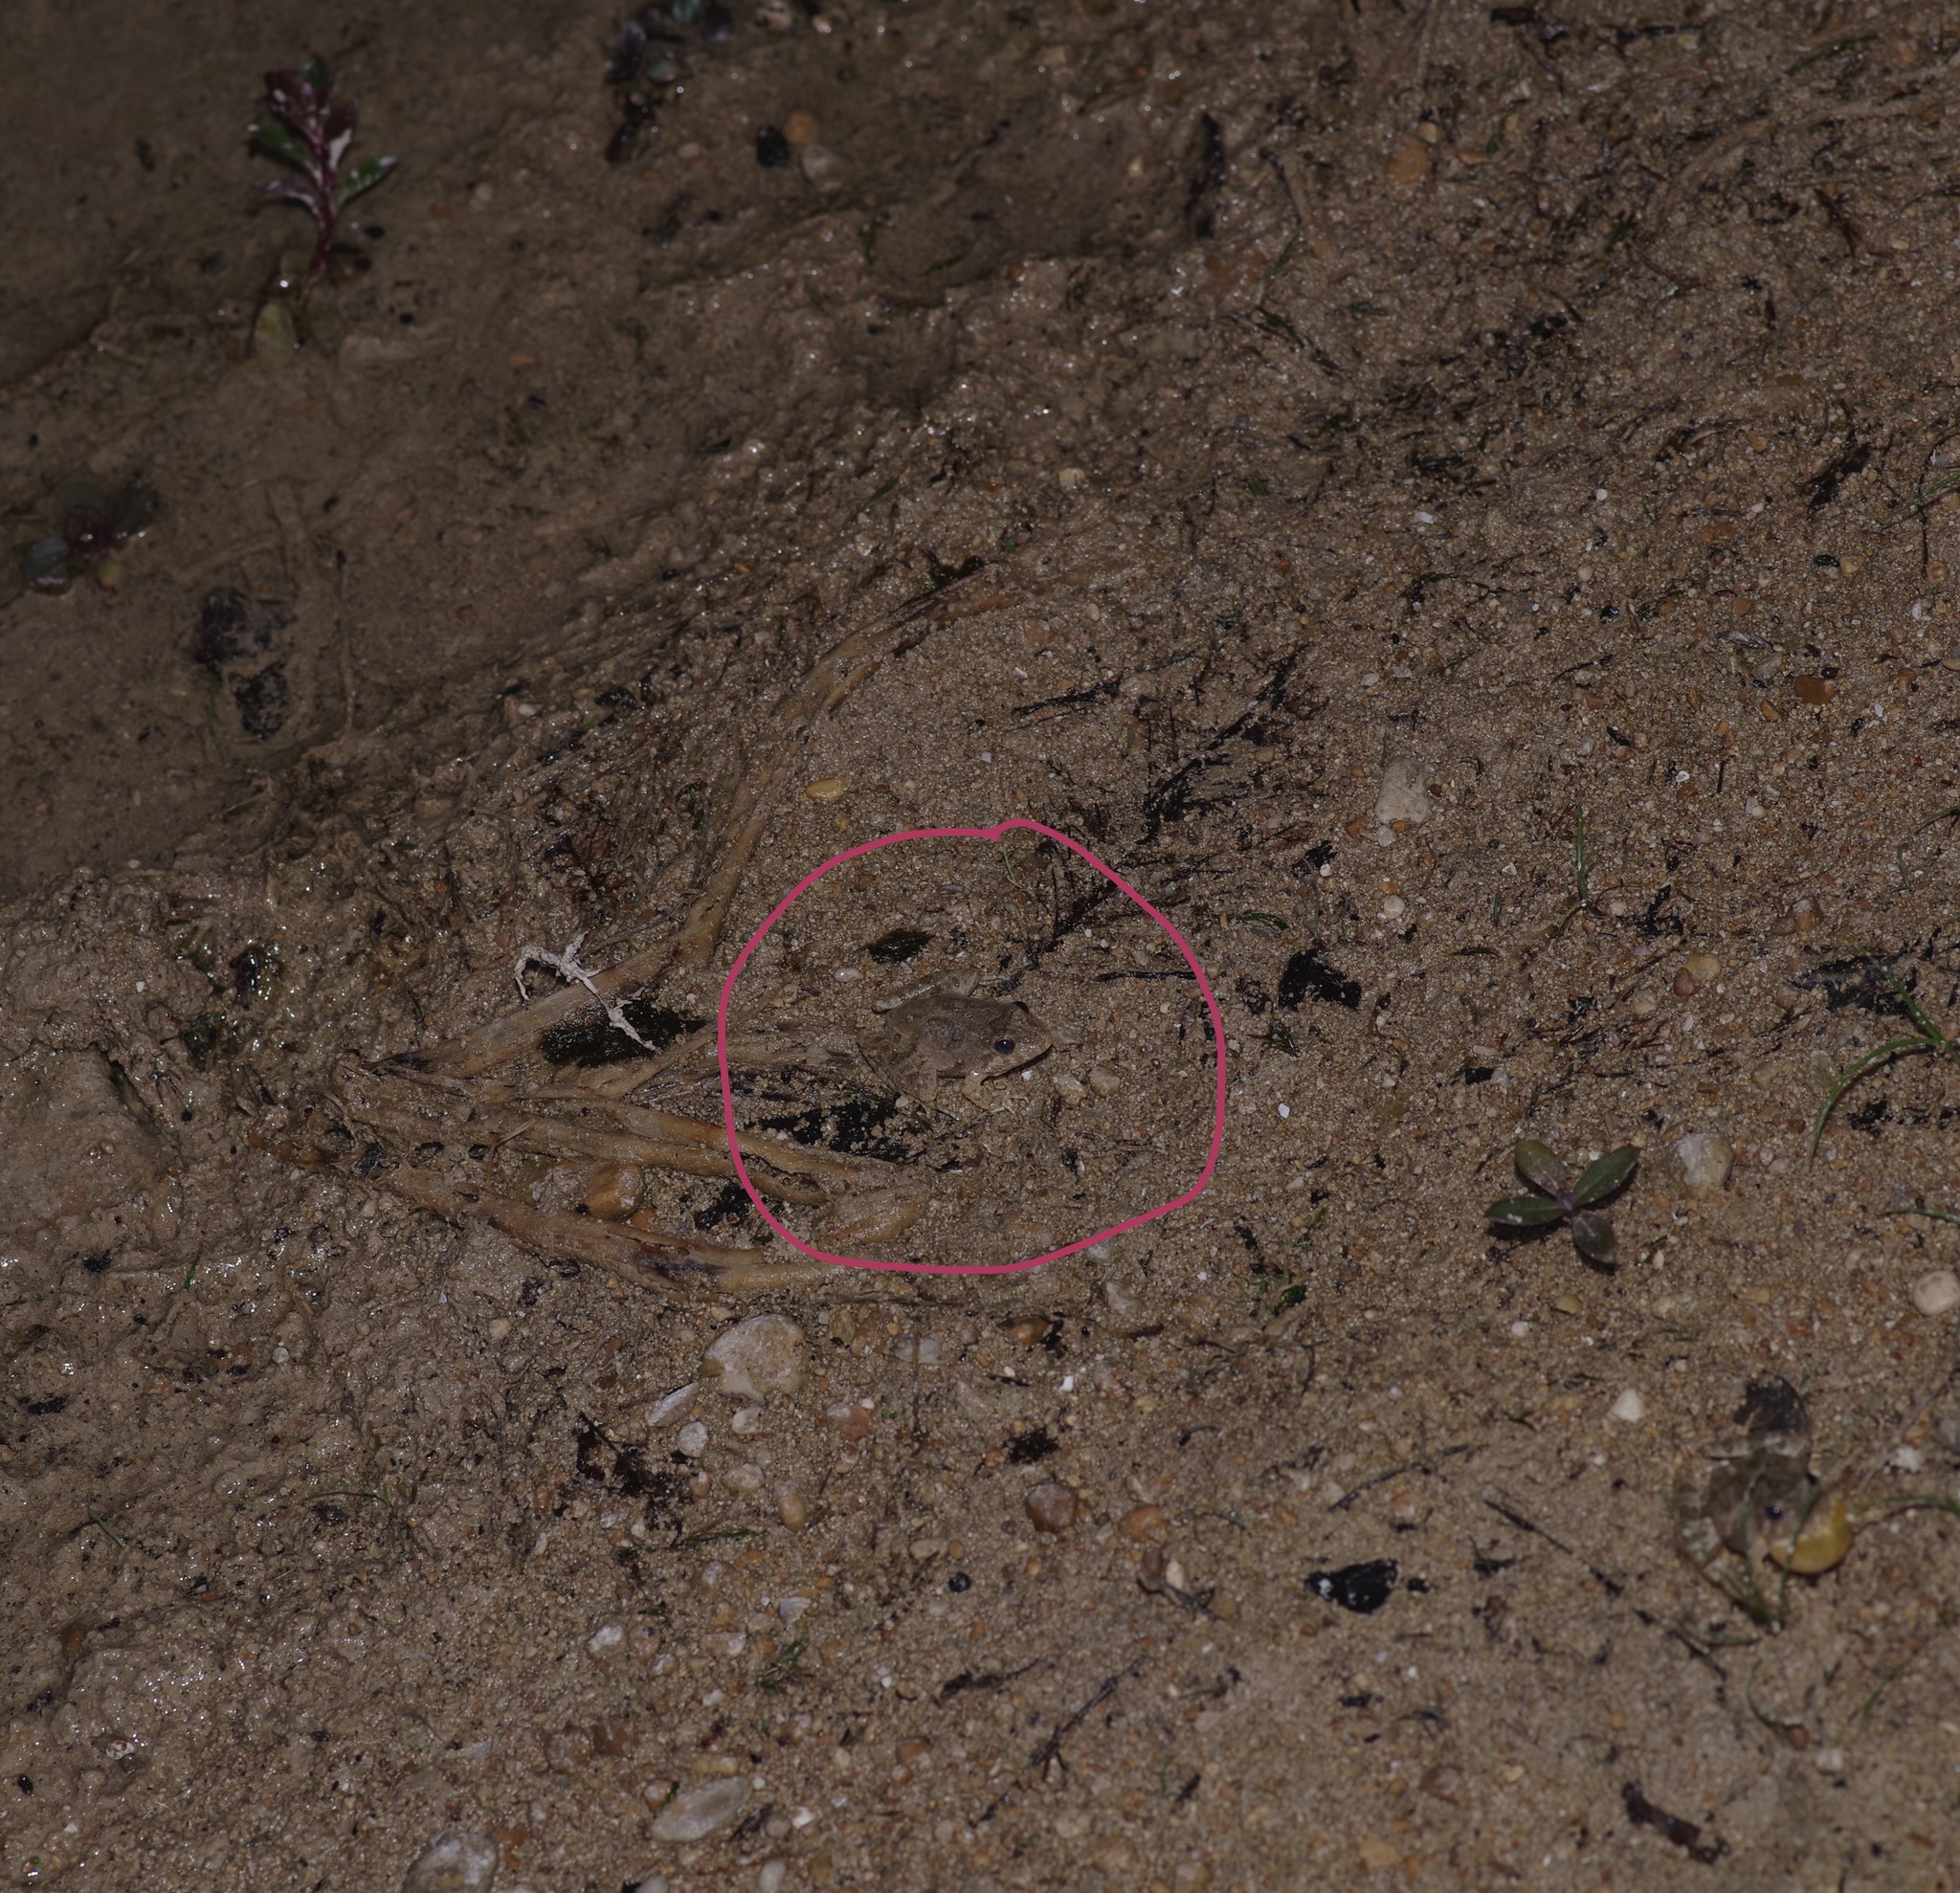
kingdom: Animalia
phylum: Chordata
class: Amphibia
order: Anura
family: Hylidae
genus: Acris
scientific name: Acris blanchardi
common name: Blanchard's cricket frog
